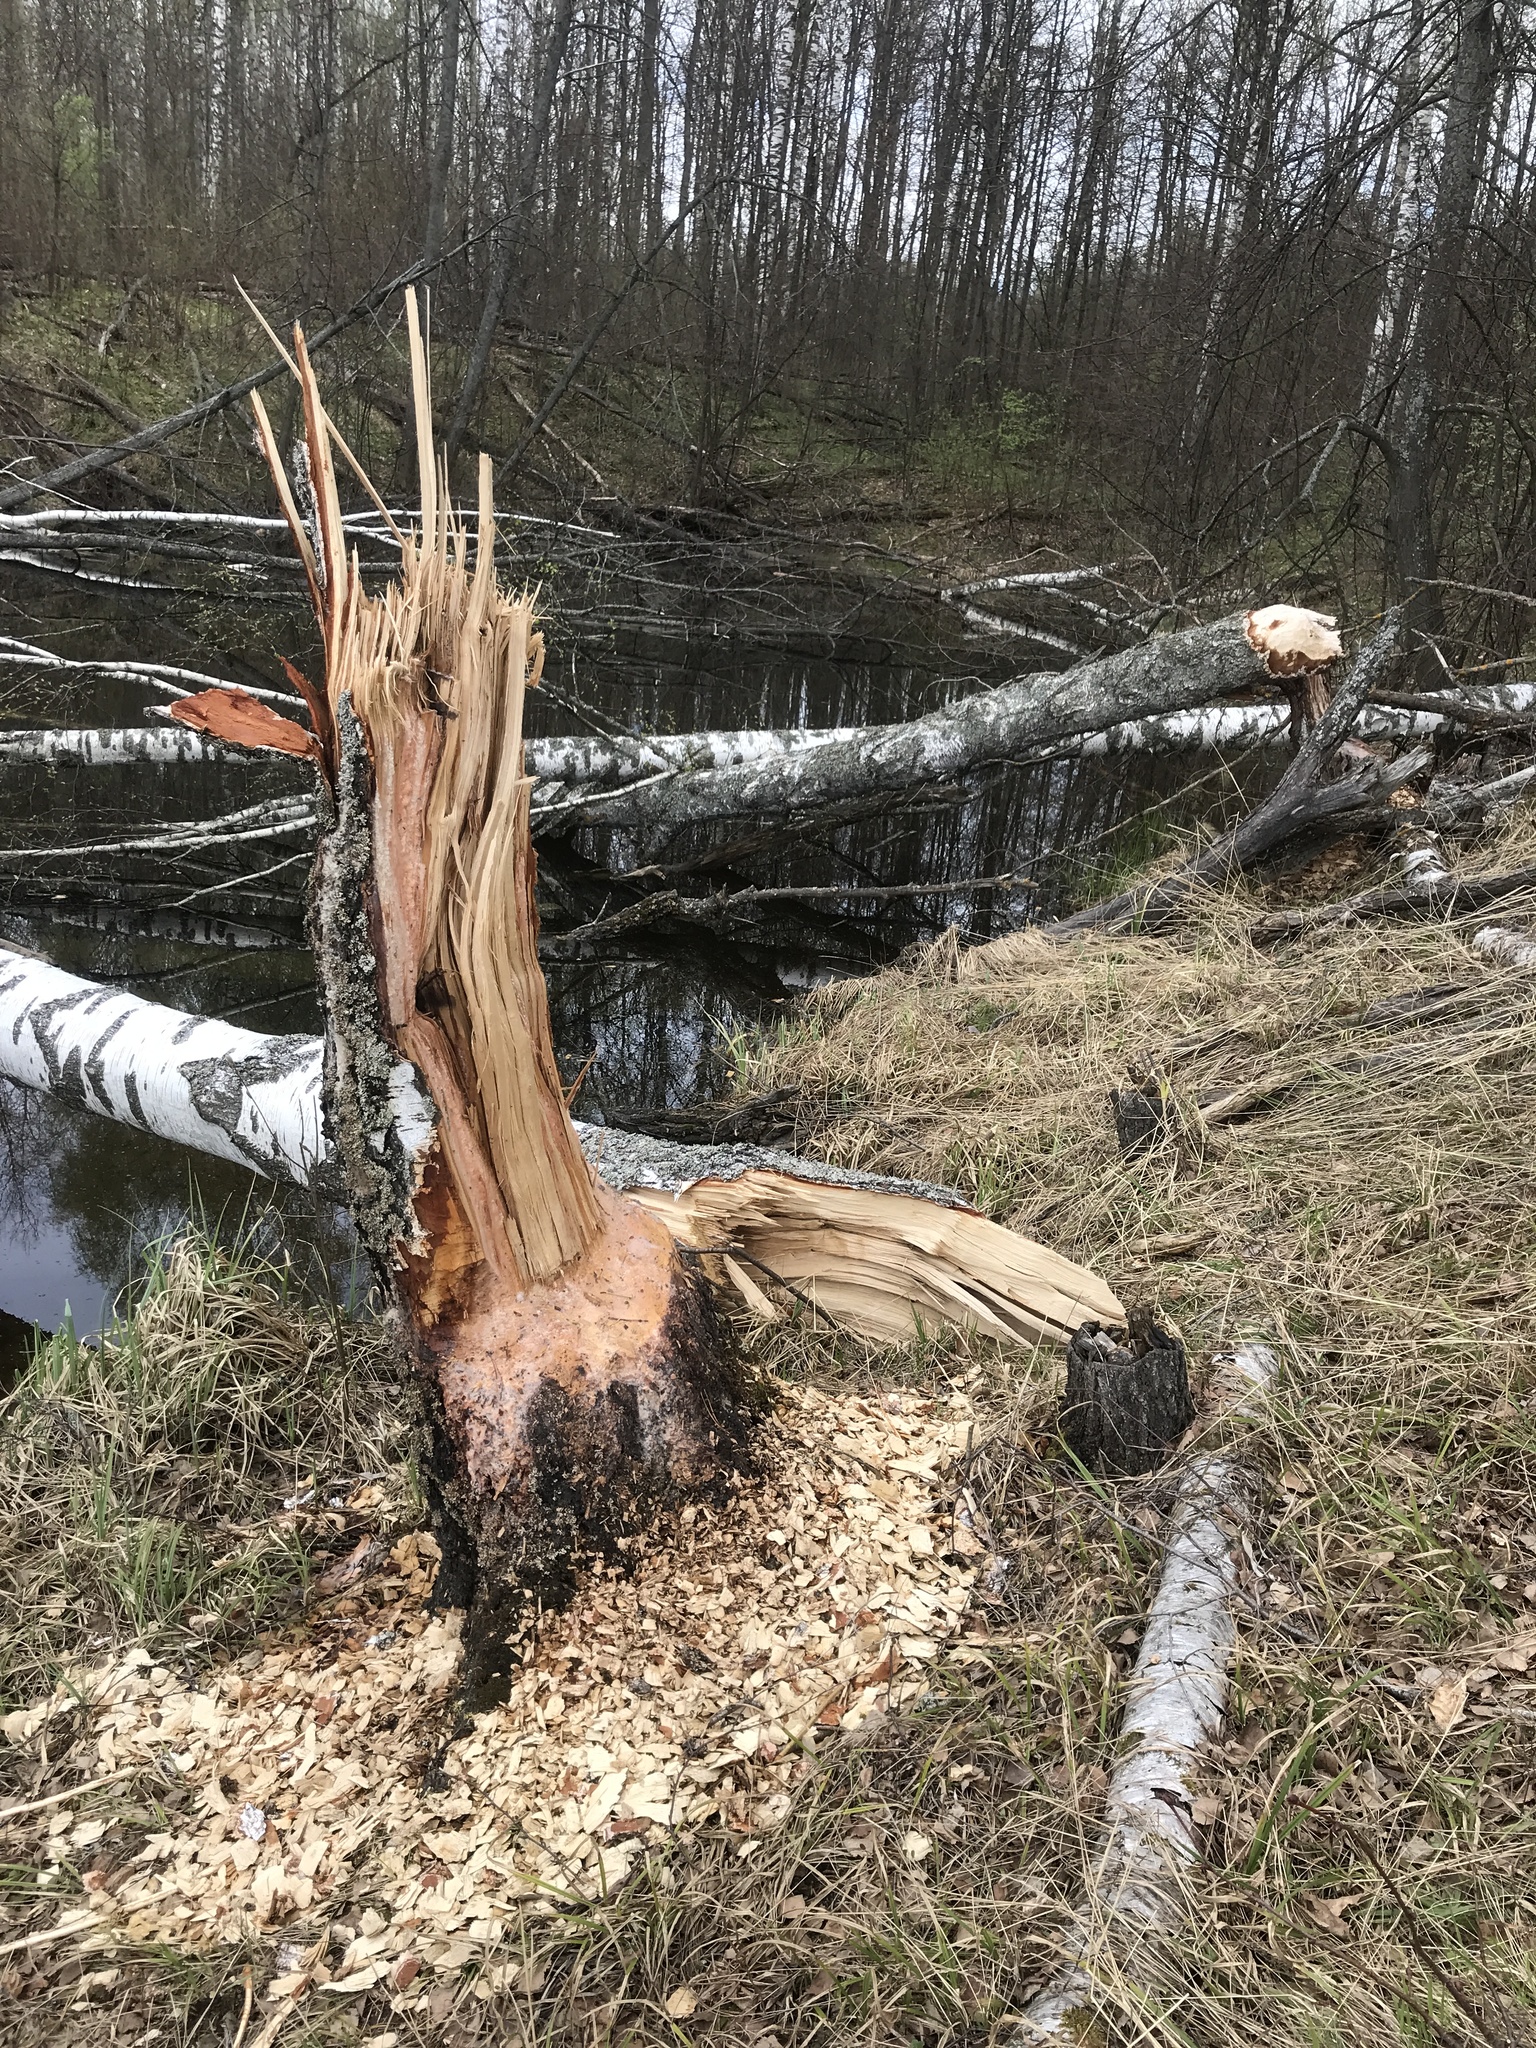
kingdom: Animalia
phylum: Chordata
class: Mammalia
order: Rodentia
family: Castoridae
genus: Castor
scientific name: Castor fiber
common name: Eurasian beaver
